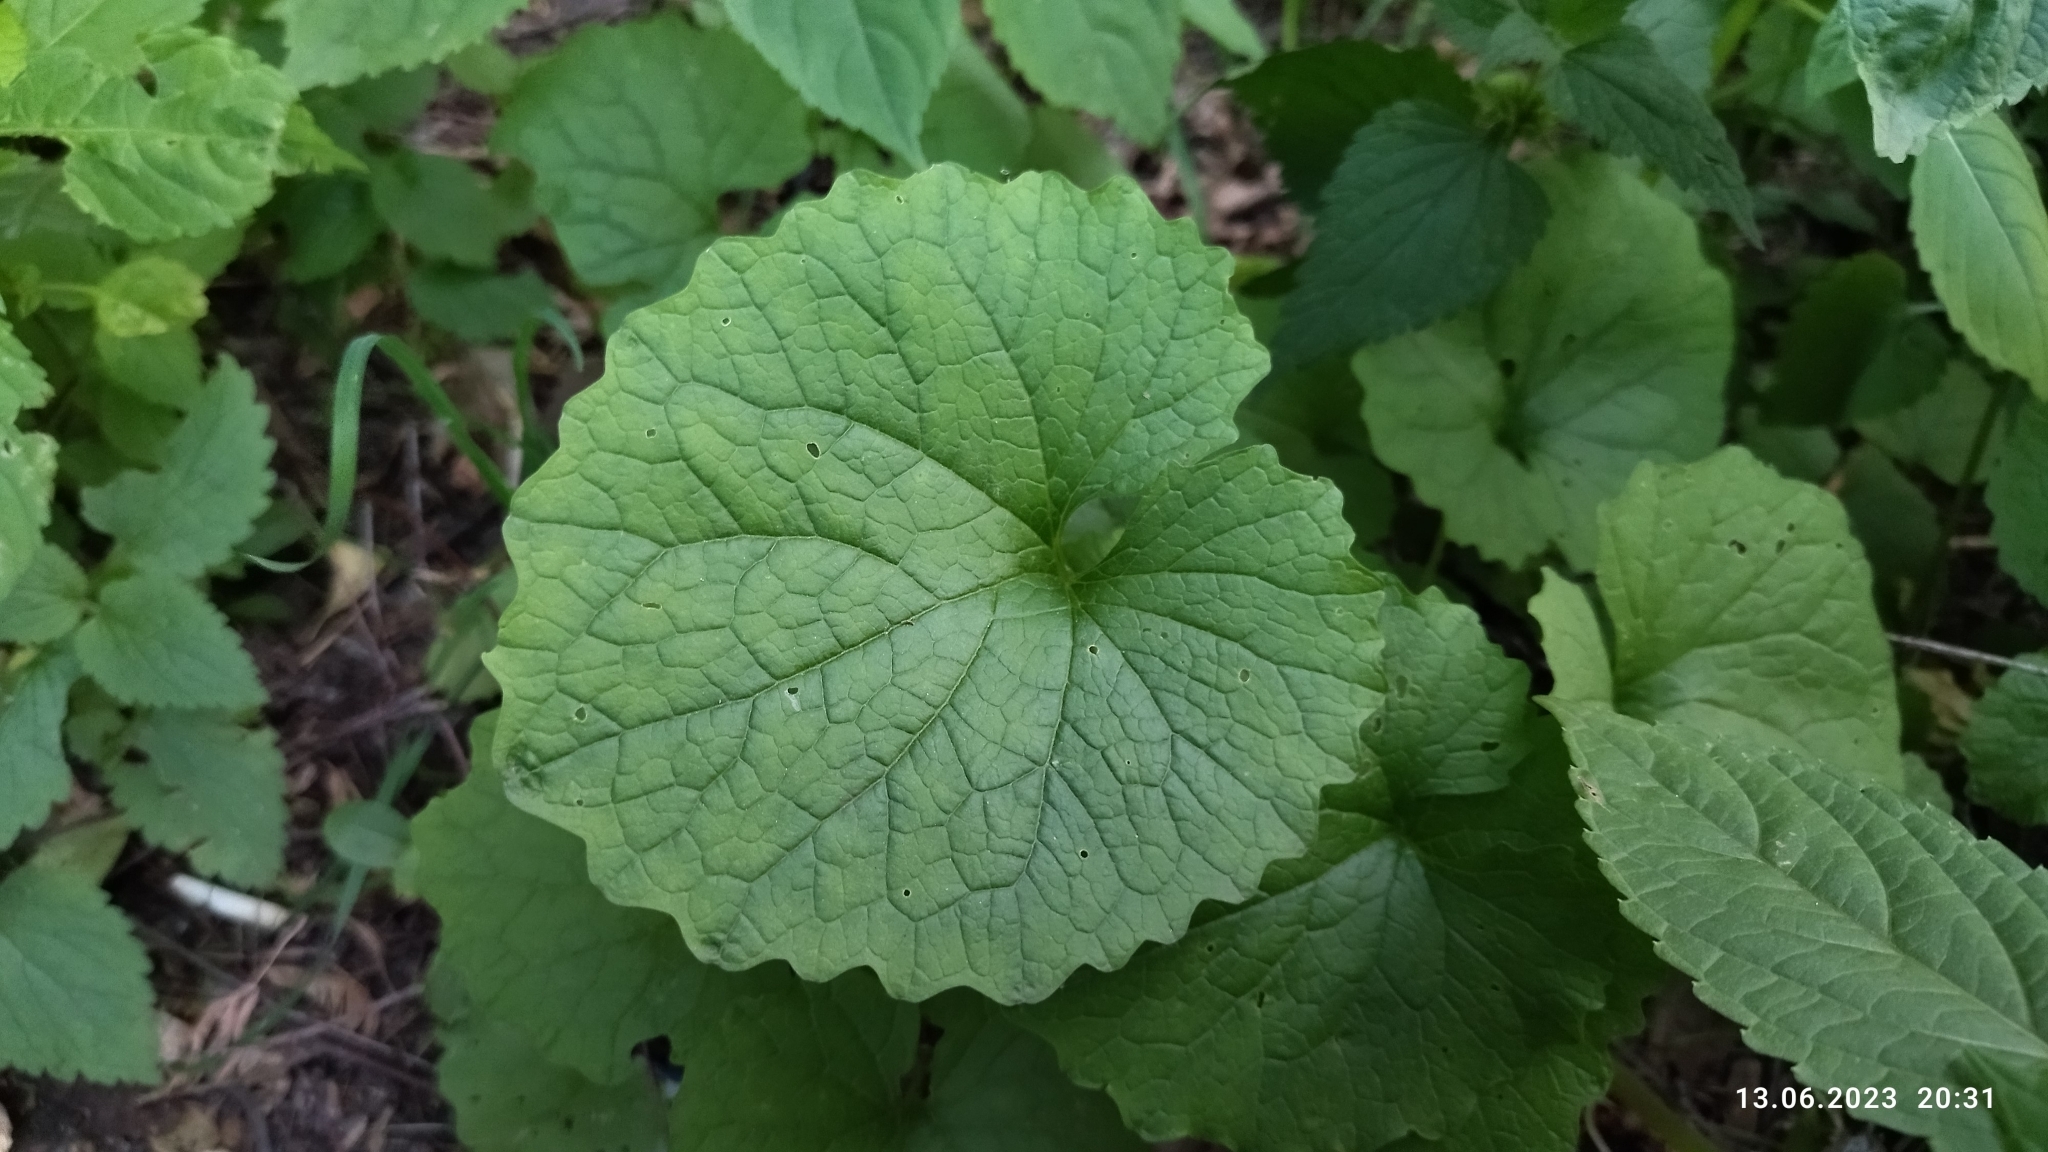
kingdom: Plantae
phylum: Tracheophyta
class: Magnoliopsida
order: Brassicales
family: Brassicaceae
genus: Alliaria
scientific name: Alliaria petiolata
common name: Garlic mustard
